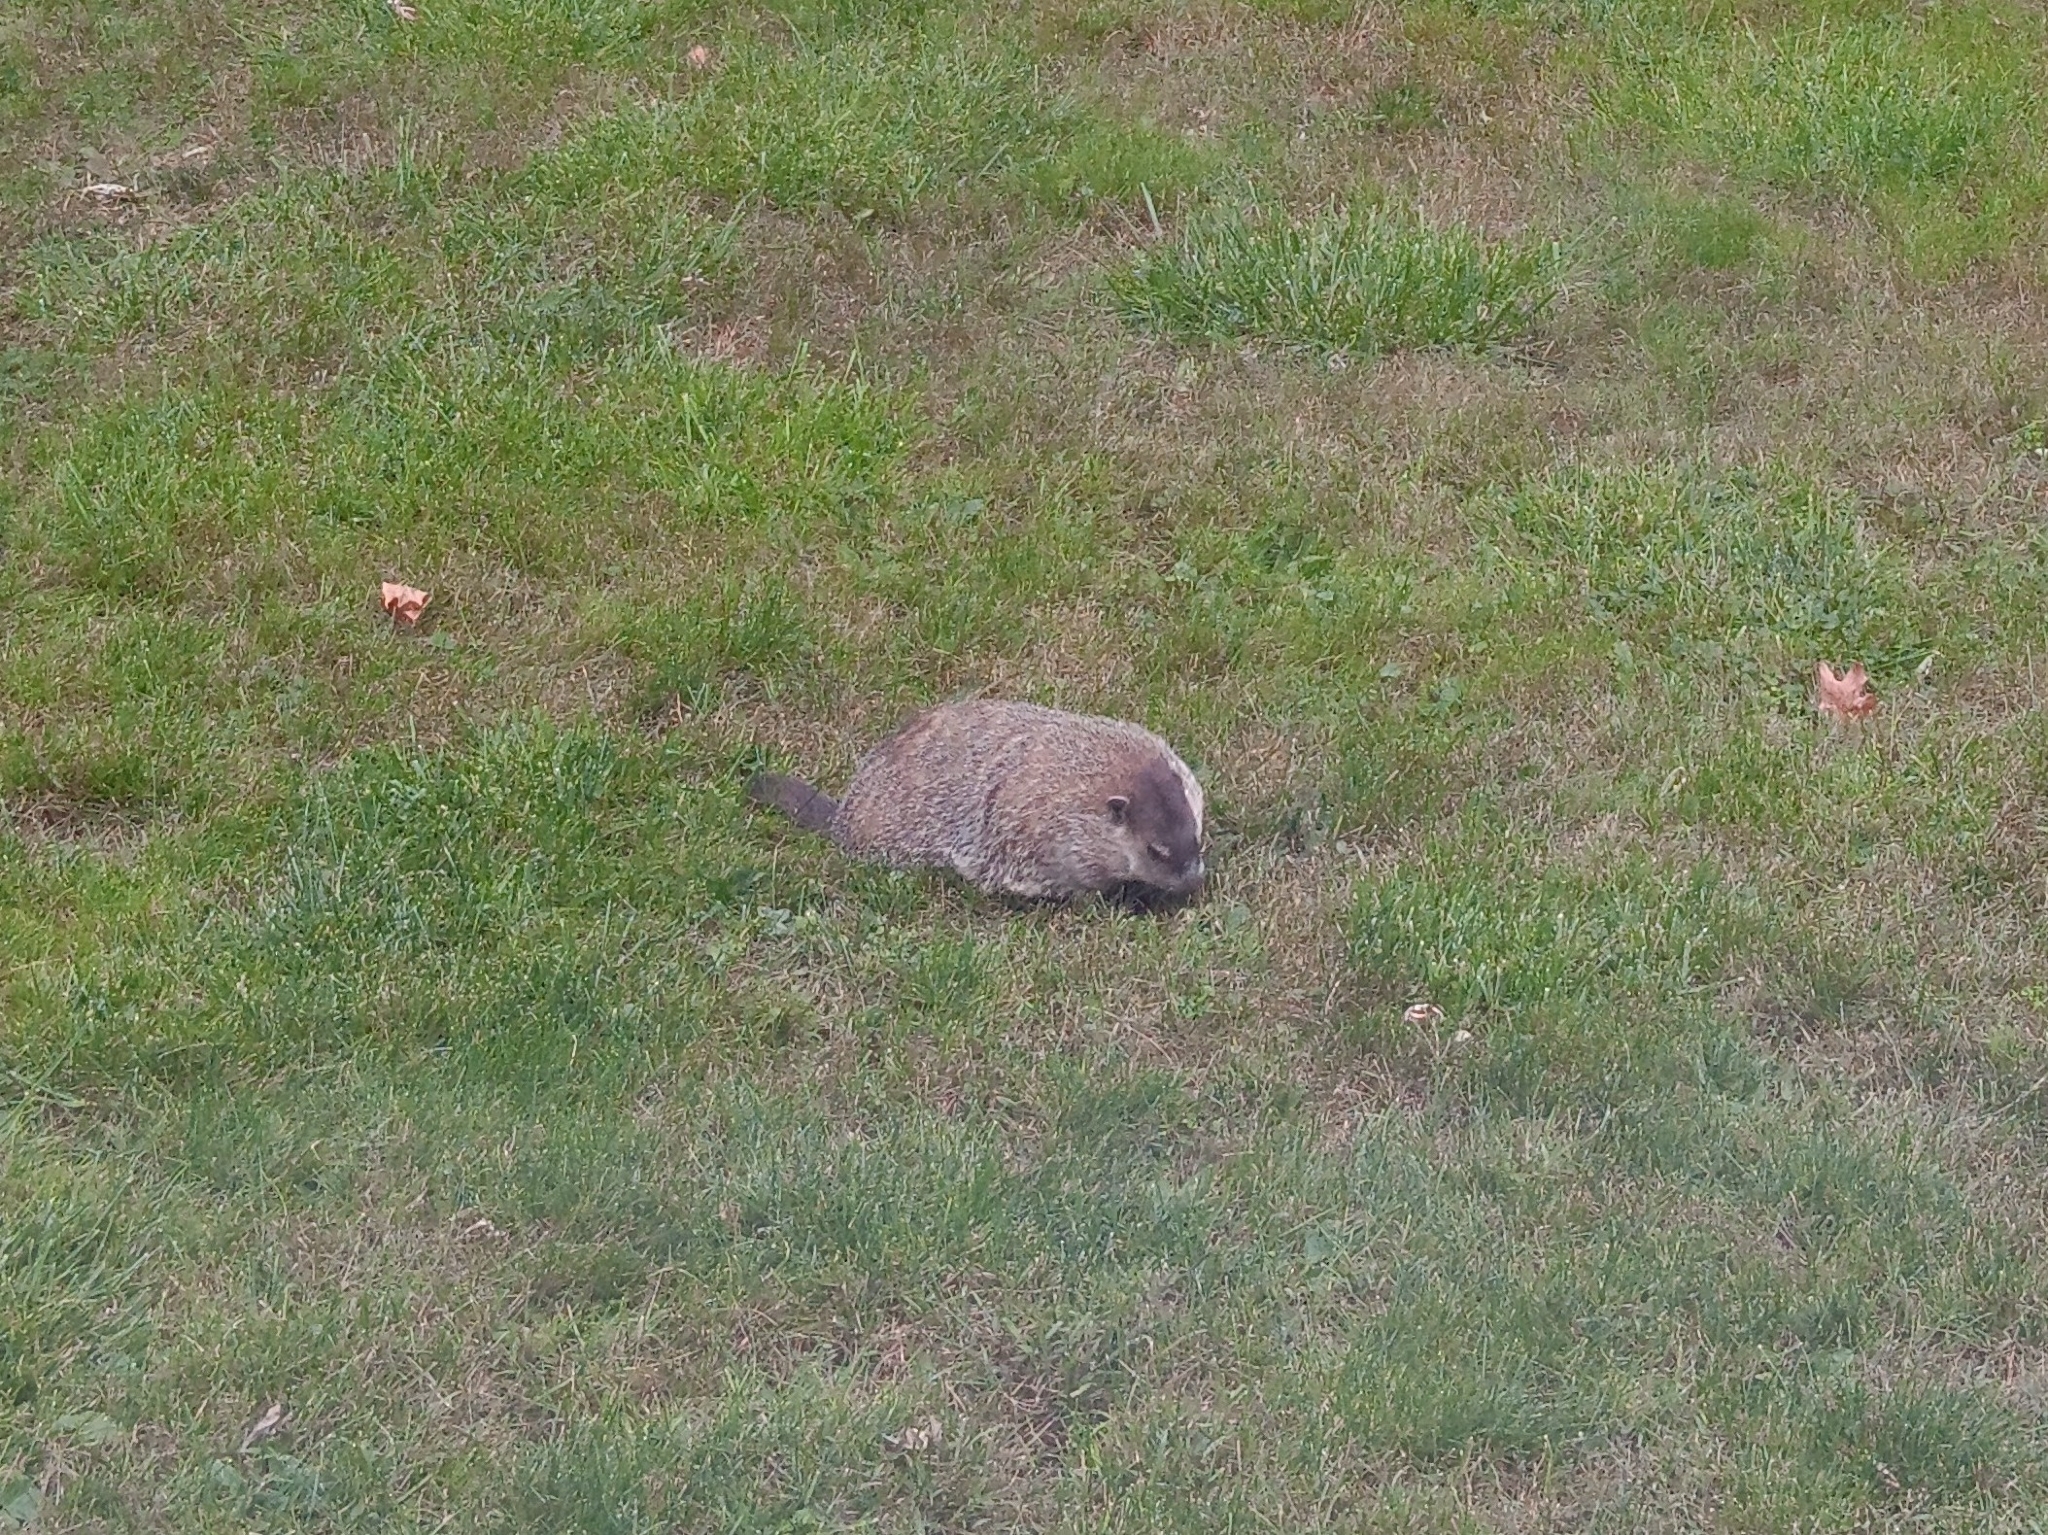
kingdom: Animalia
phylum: Chordata
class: Mammalia
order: Rodentia
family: Sciuridae
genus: Marmota
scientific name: Marmota monax
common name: Groundhog
